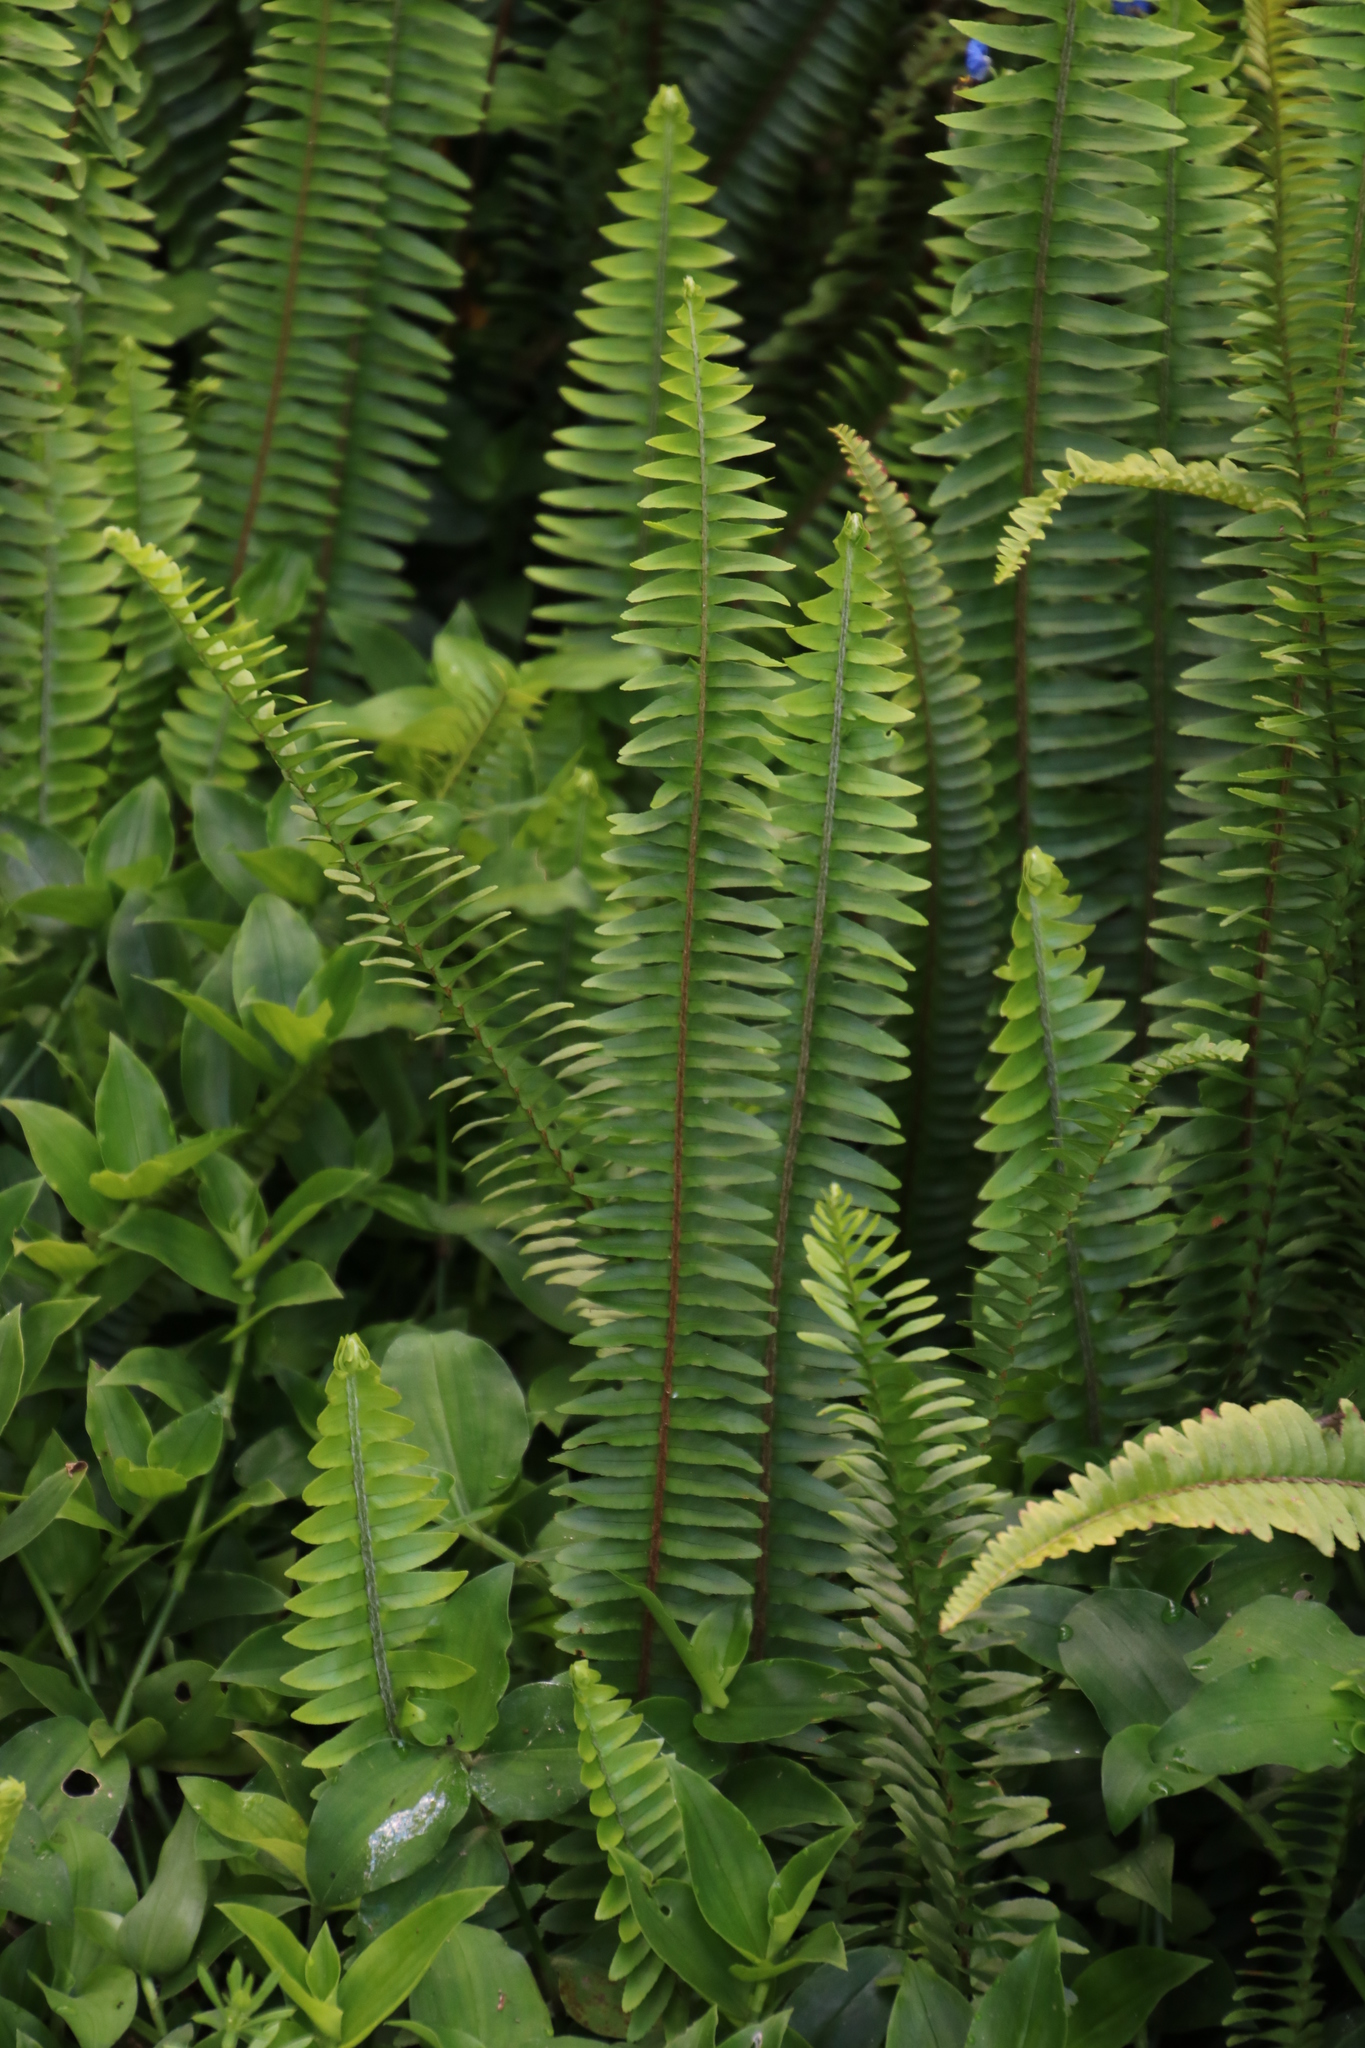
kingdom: Plantae
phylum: Tracheophyta
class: Polypodiopsida
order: Polypodiales
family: Nephrolepidaceae
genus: Nephrolepis
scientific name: Nephrolepis cordifolia
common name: Narrow swordfern
